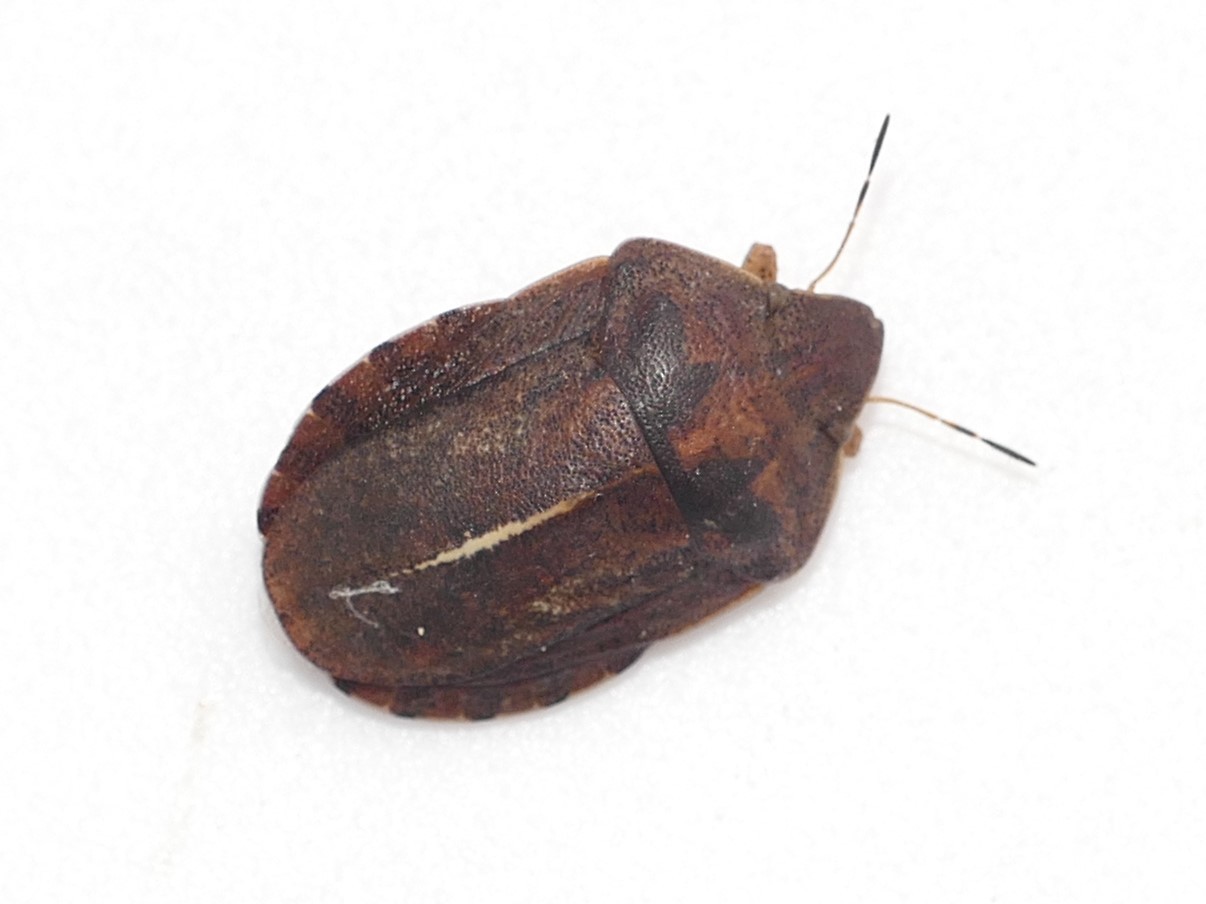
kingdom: Animalia
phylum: Arthropoda
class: Insecta
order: Hemiptera
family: Scutelleridae
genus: Eurygaster
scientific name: Eurygaster austriaca
